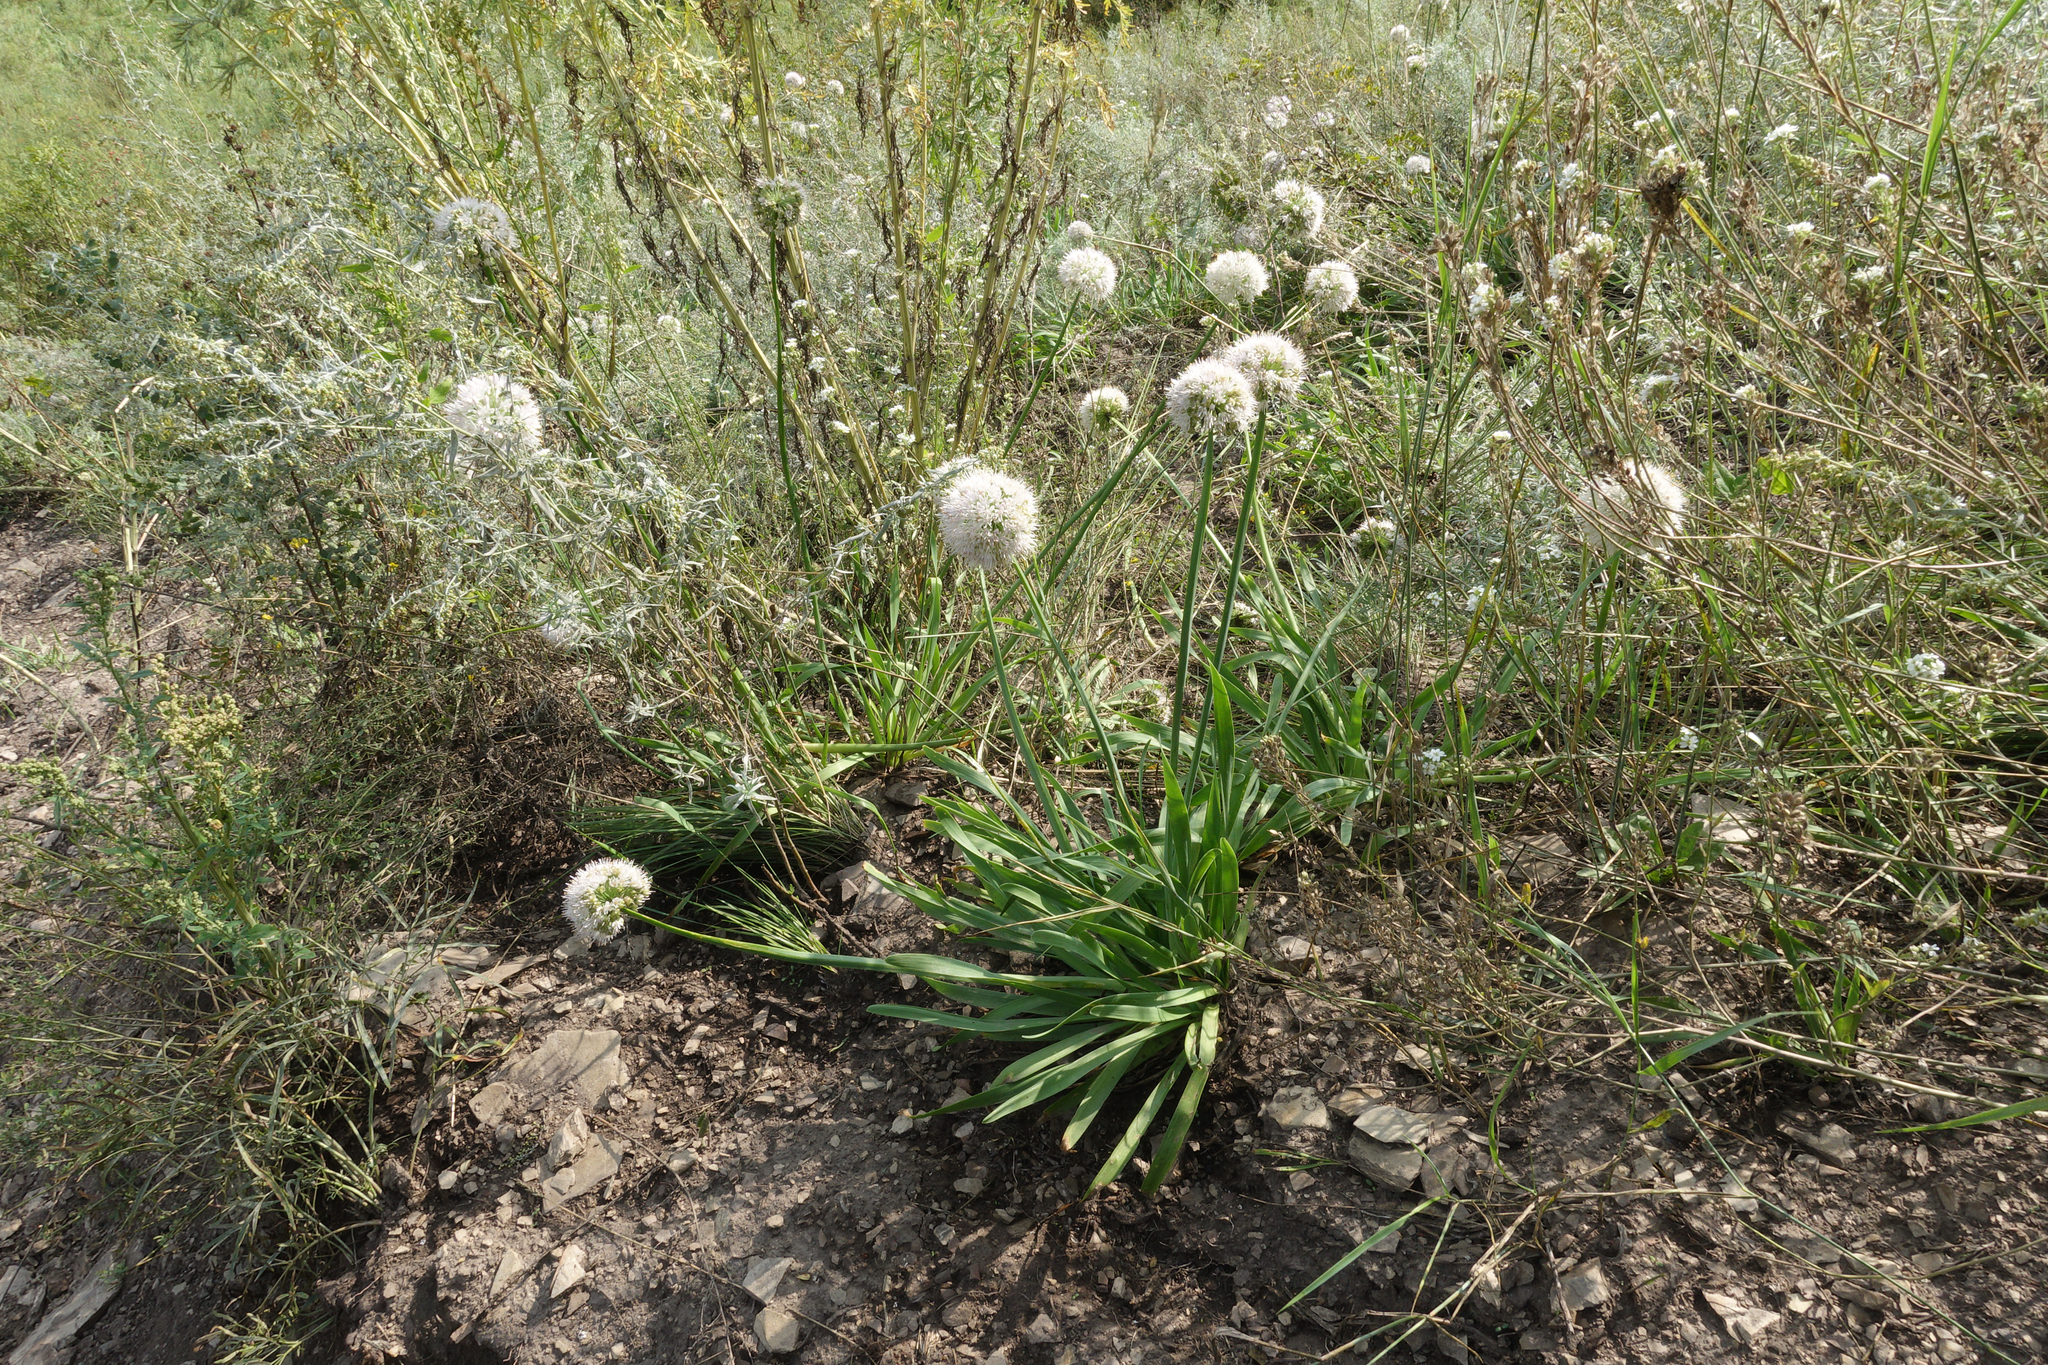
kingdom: Plantae
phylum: Tracheophyta
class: Liliopsida
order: Asparagales
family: Amaryllidaceae
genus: Allium
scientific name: Allium nutans
